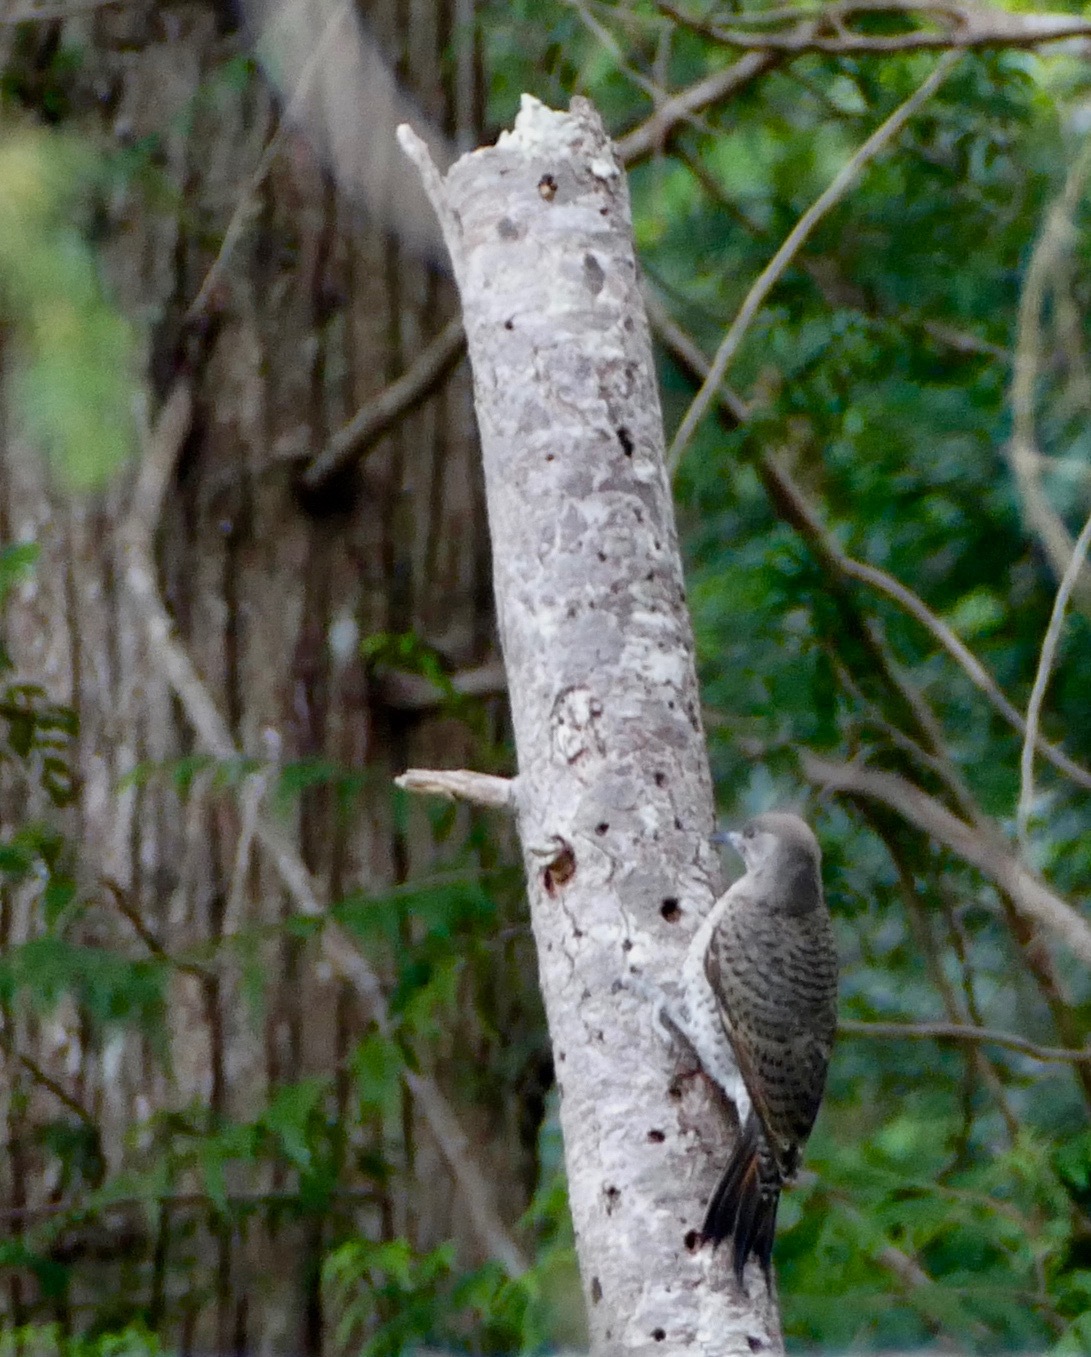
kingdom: Animalia
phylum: Chordata
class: Aves
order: Piciformes
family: Picidae
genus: Colaptes
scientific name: Colaptes auratus
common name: Northern flicker
